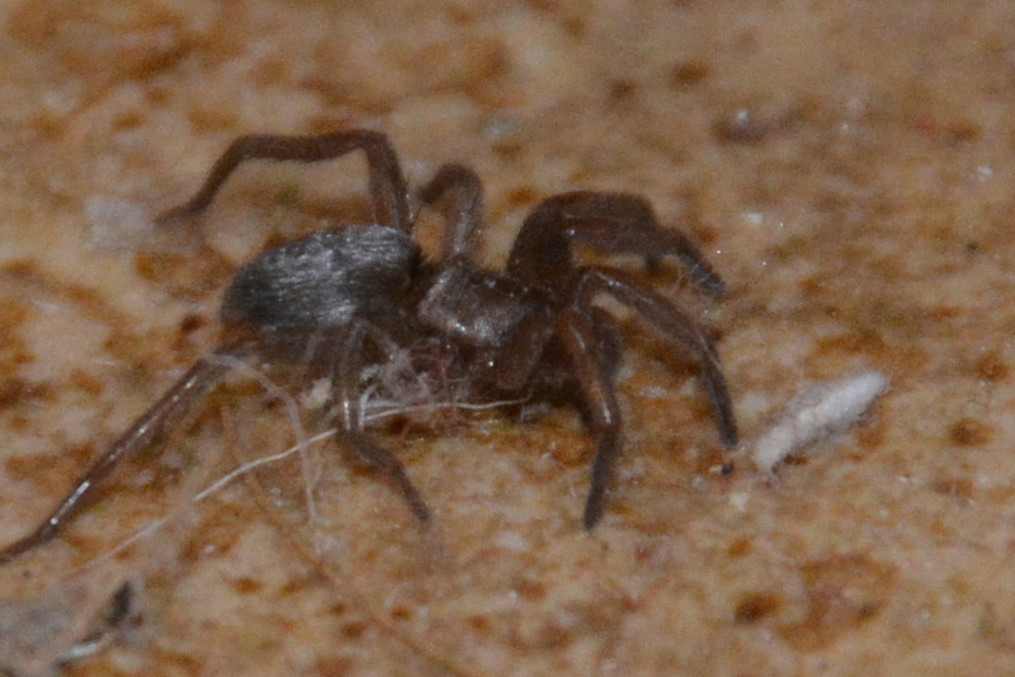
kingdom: Animalia
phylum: Arthropoda
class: Arachnida
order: Araneae
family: Gnaphosidae
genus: Scotophaeus
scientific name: Scotophaeus blackwalli
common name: Mouse spider
